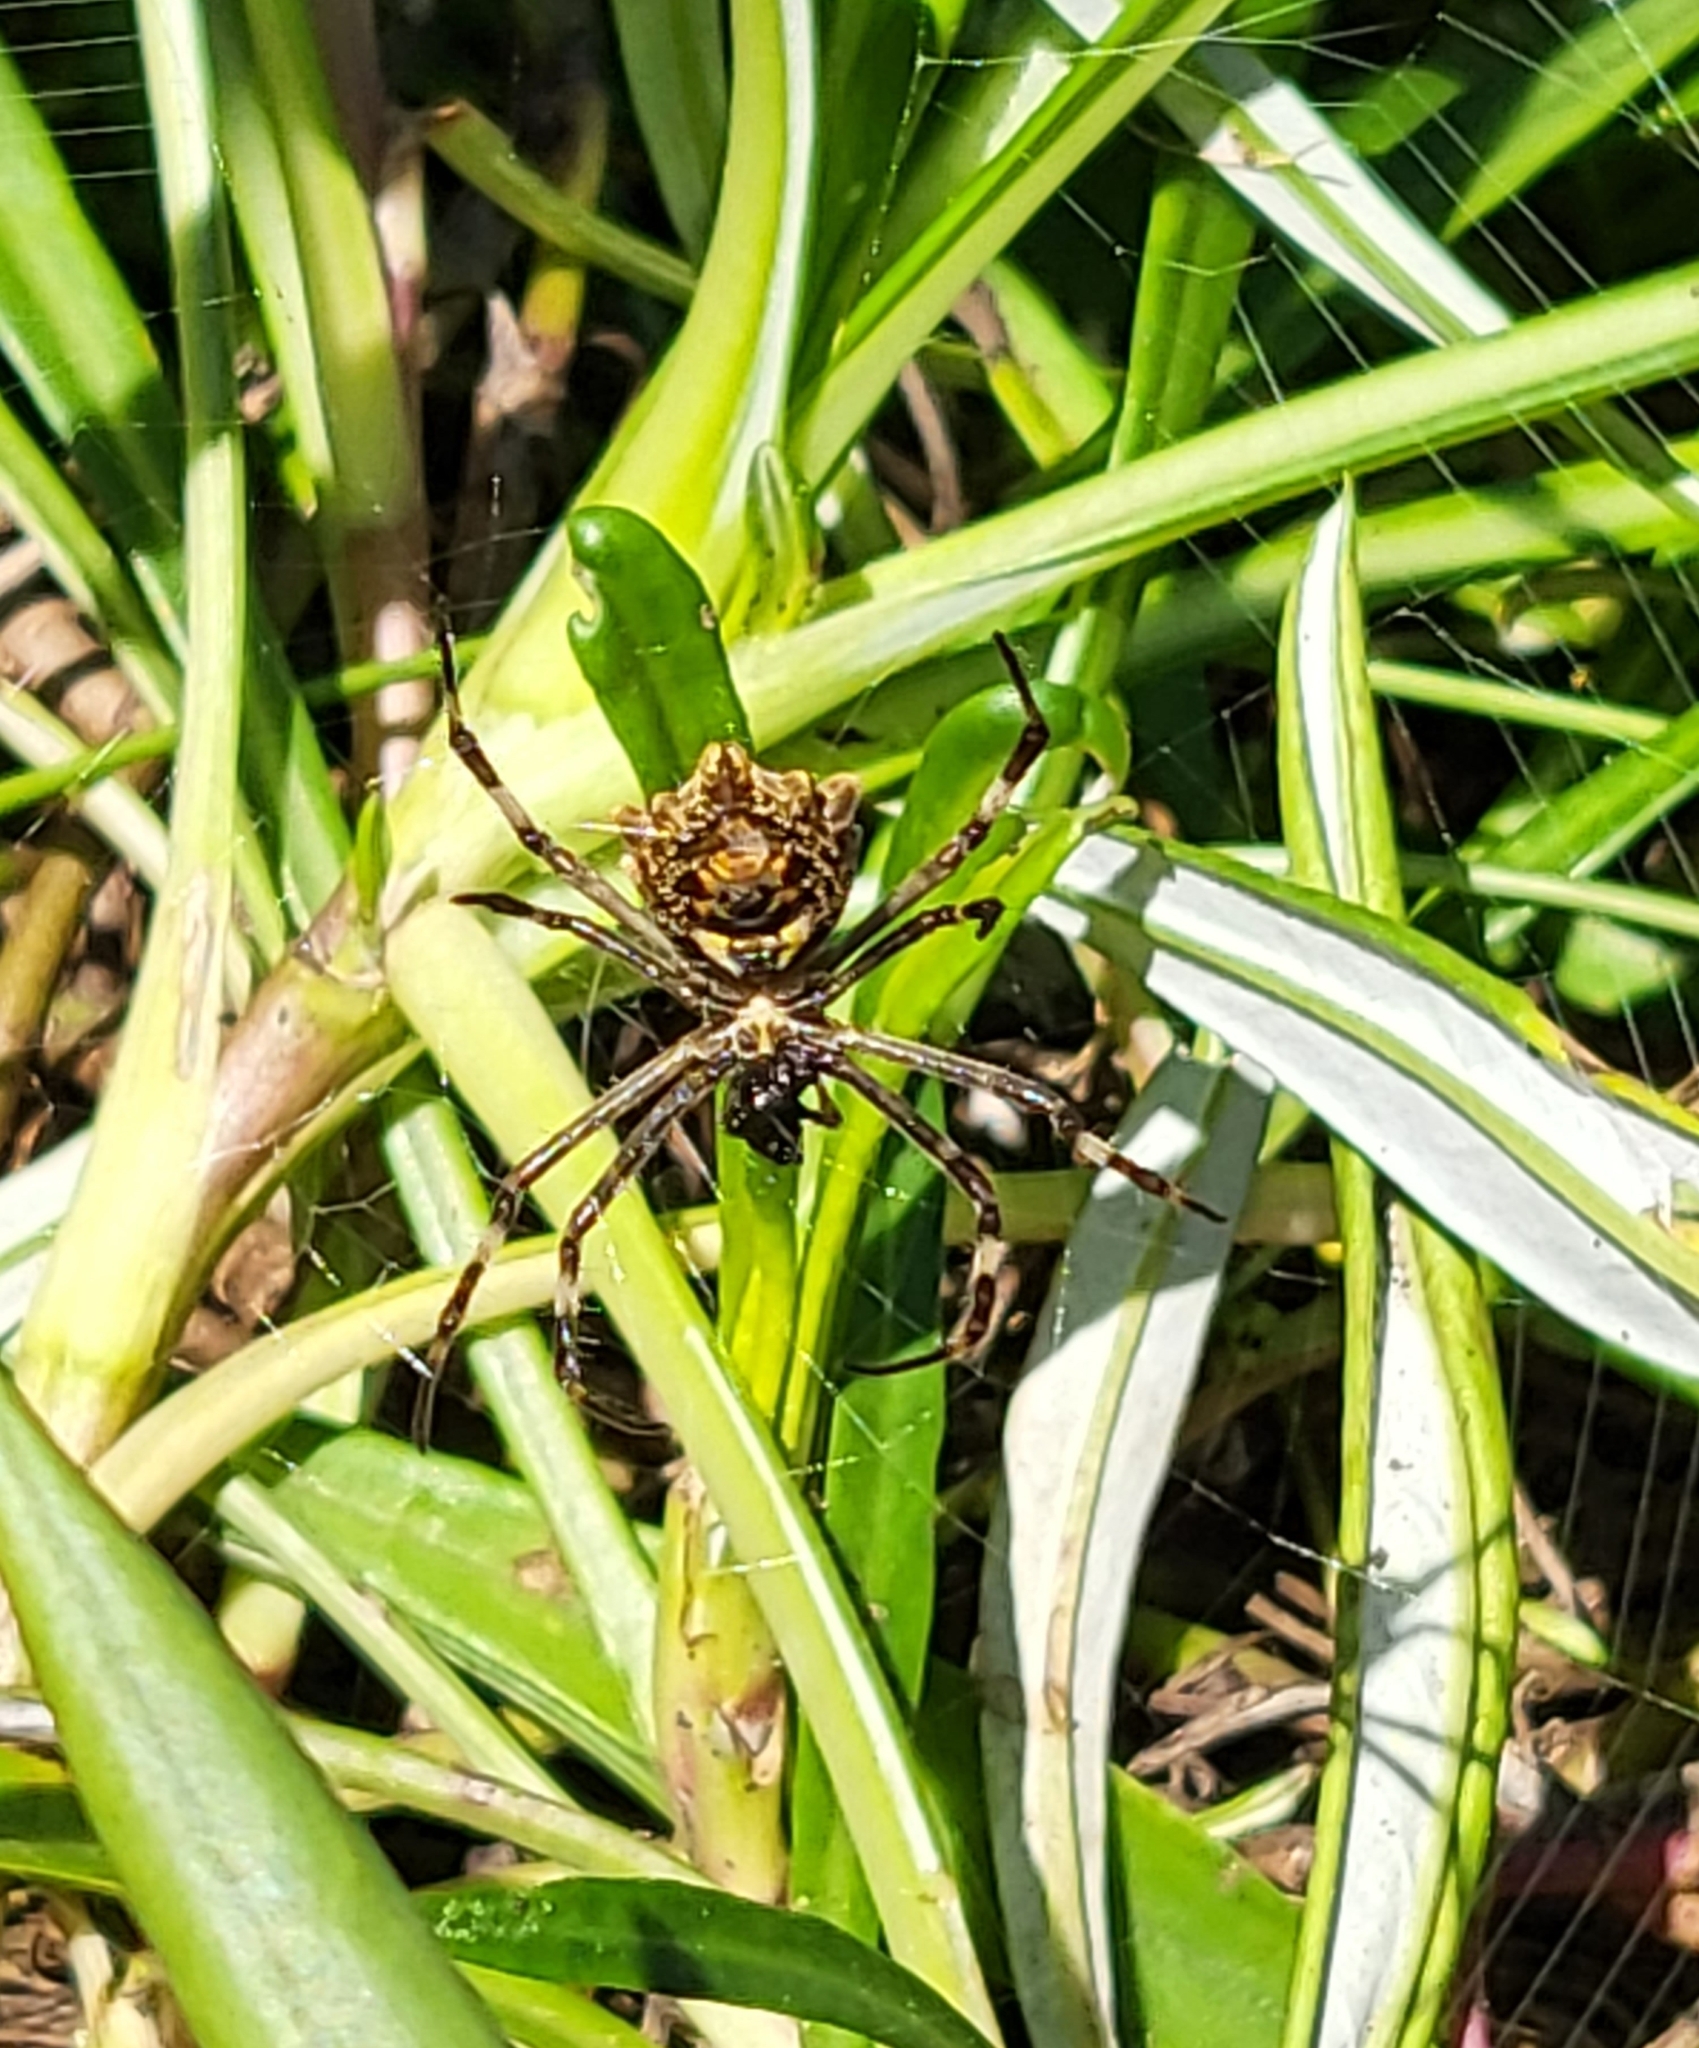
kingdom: Animalia
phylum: Arthropoda
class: Arachnida
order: Araneae
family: Araneidae
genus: Argiope
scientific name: Argiope argentata
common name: Orb weavers
